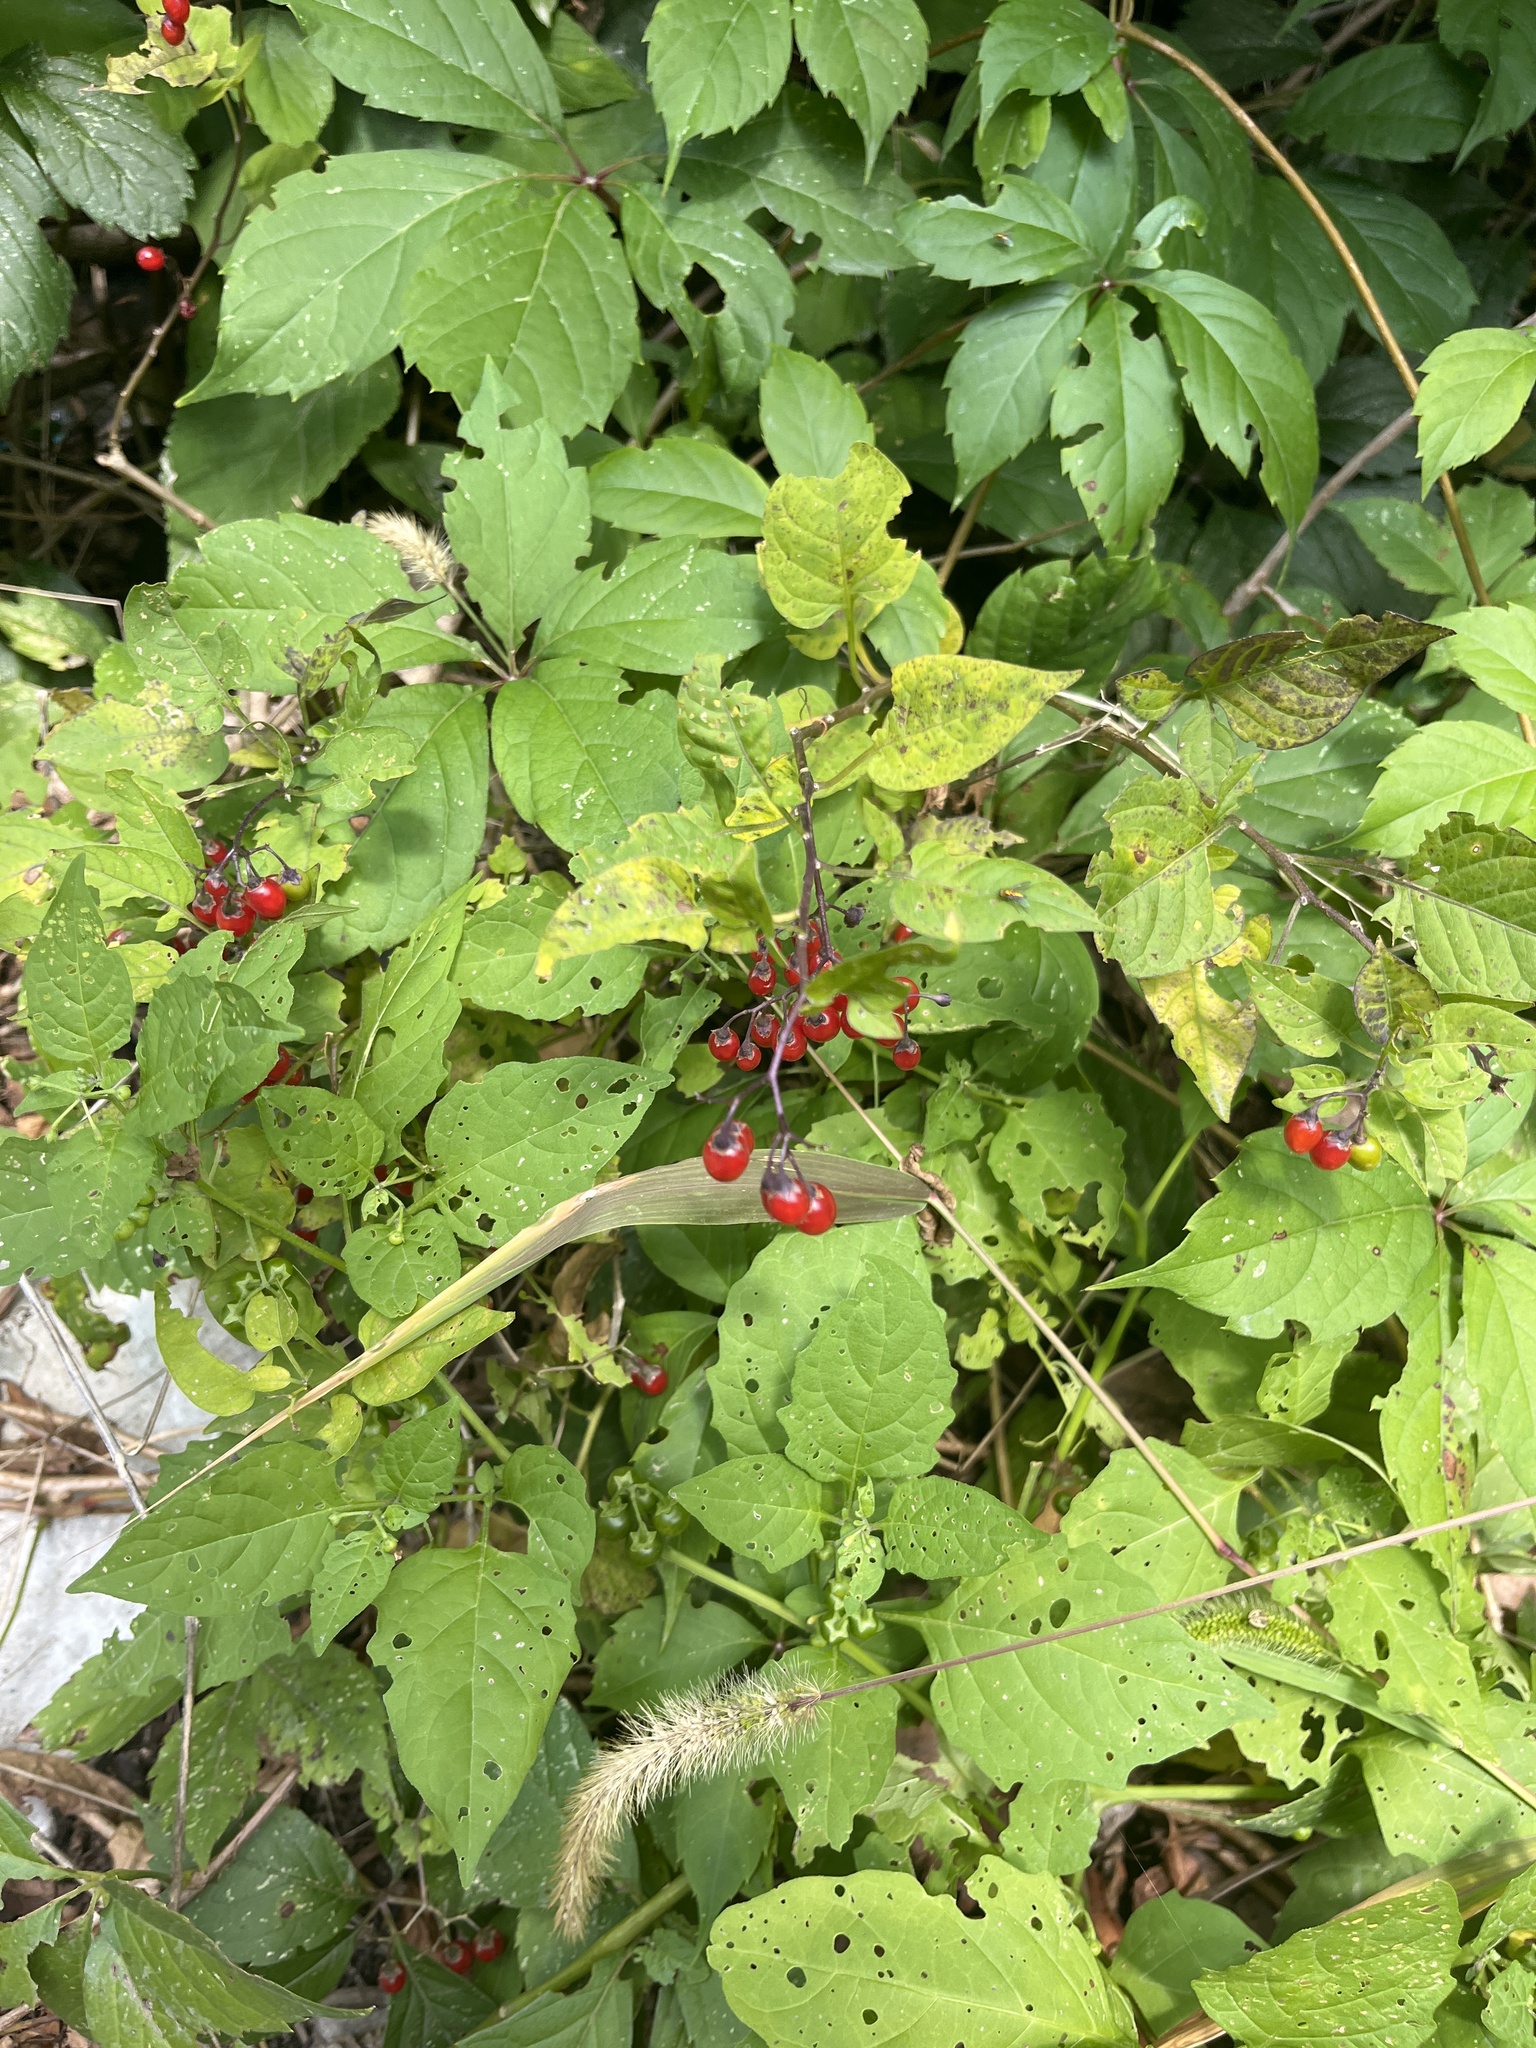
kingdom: Plantae
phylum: Tracheophyta
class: Magnoliopsida
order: Solanales
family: Solanaceae
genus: Solanum
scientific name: Solanum dulcamara
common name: Climbing nightshade
